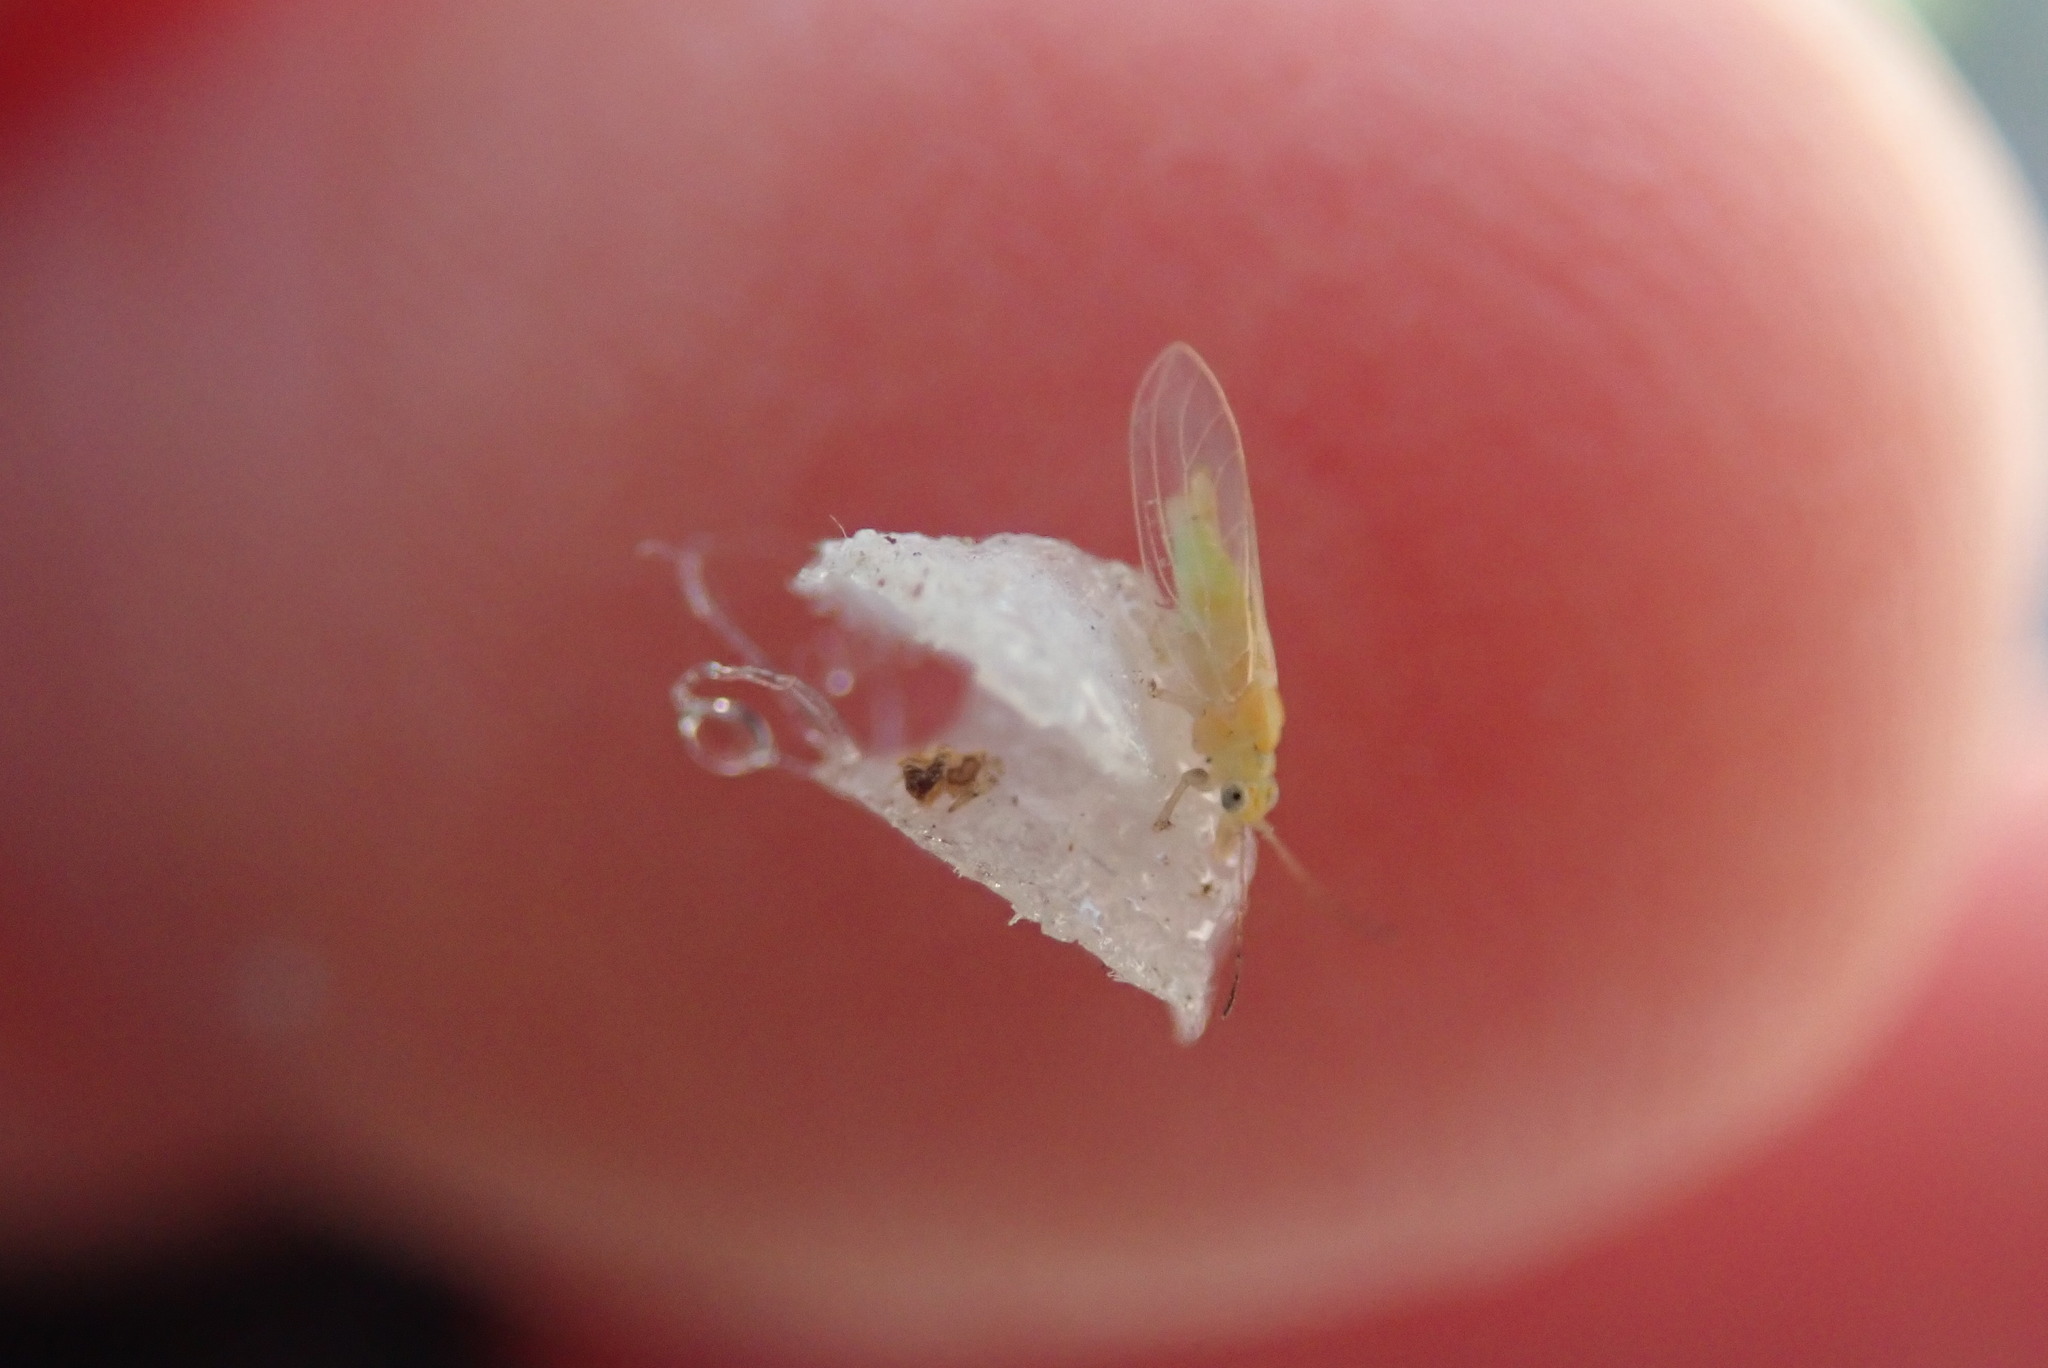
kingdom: Animalia
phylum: Arthropoda
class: Insecta
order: Hemiptera
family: Aphalaridae
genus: Glycaspis
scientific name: Glycaspis brimblecombei
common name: Red gum lerp psyllid
